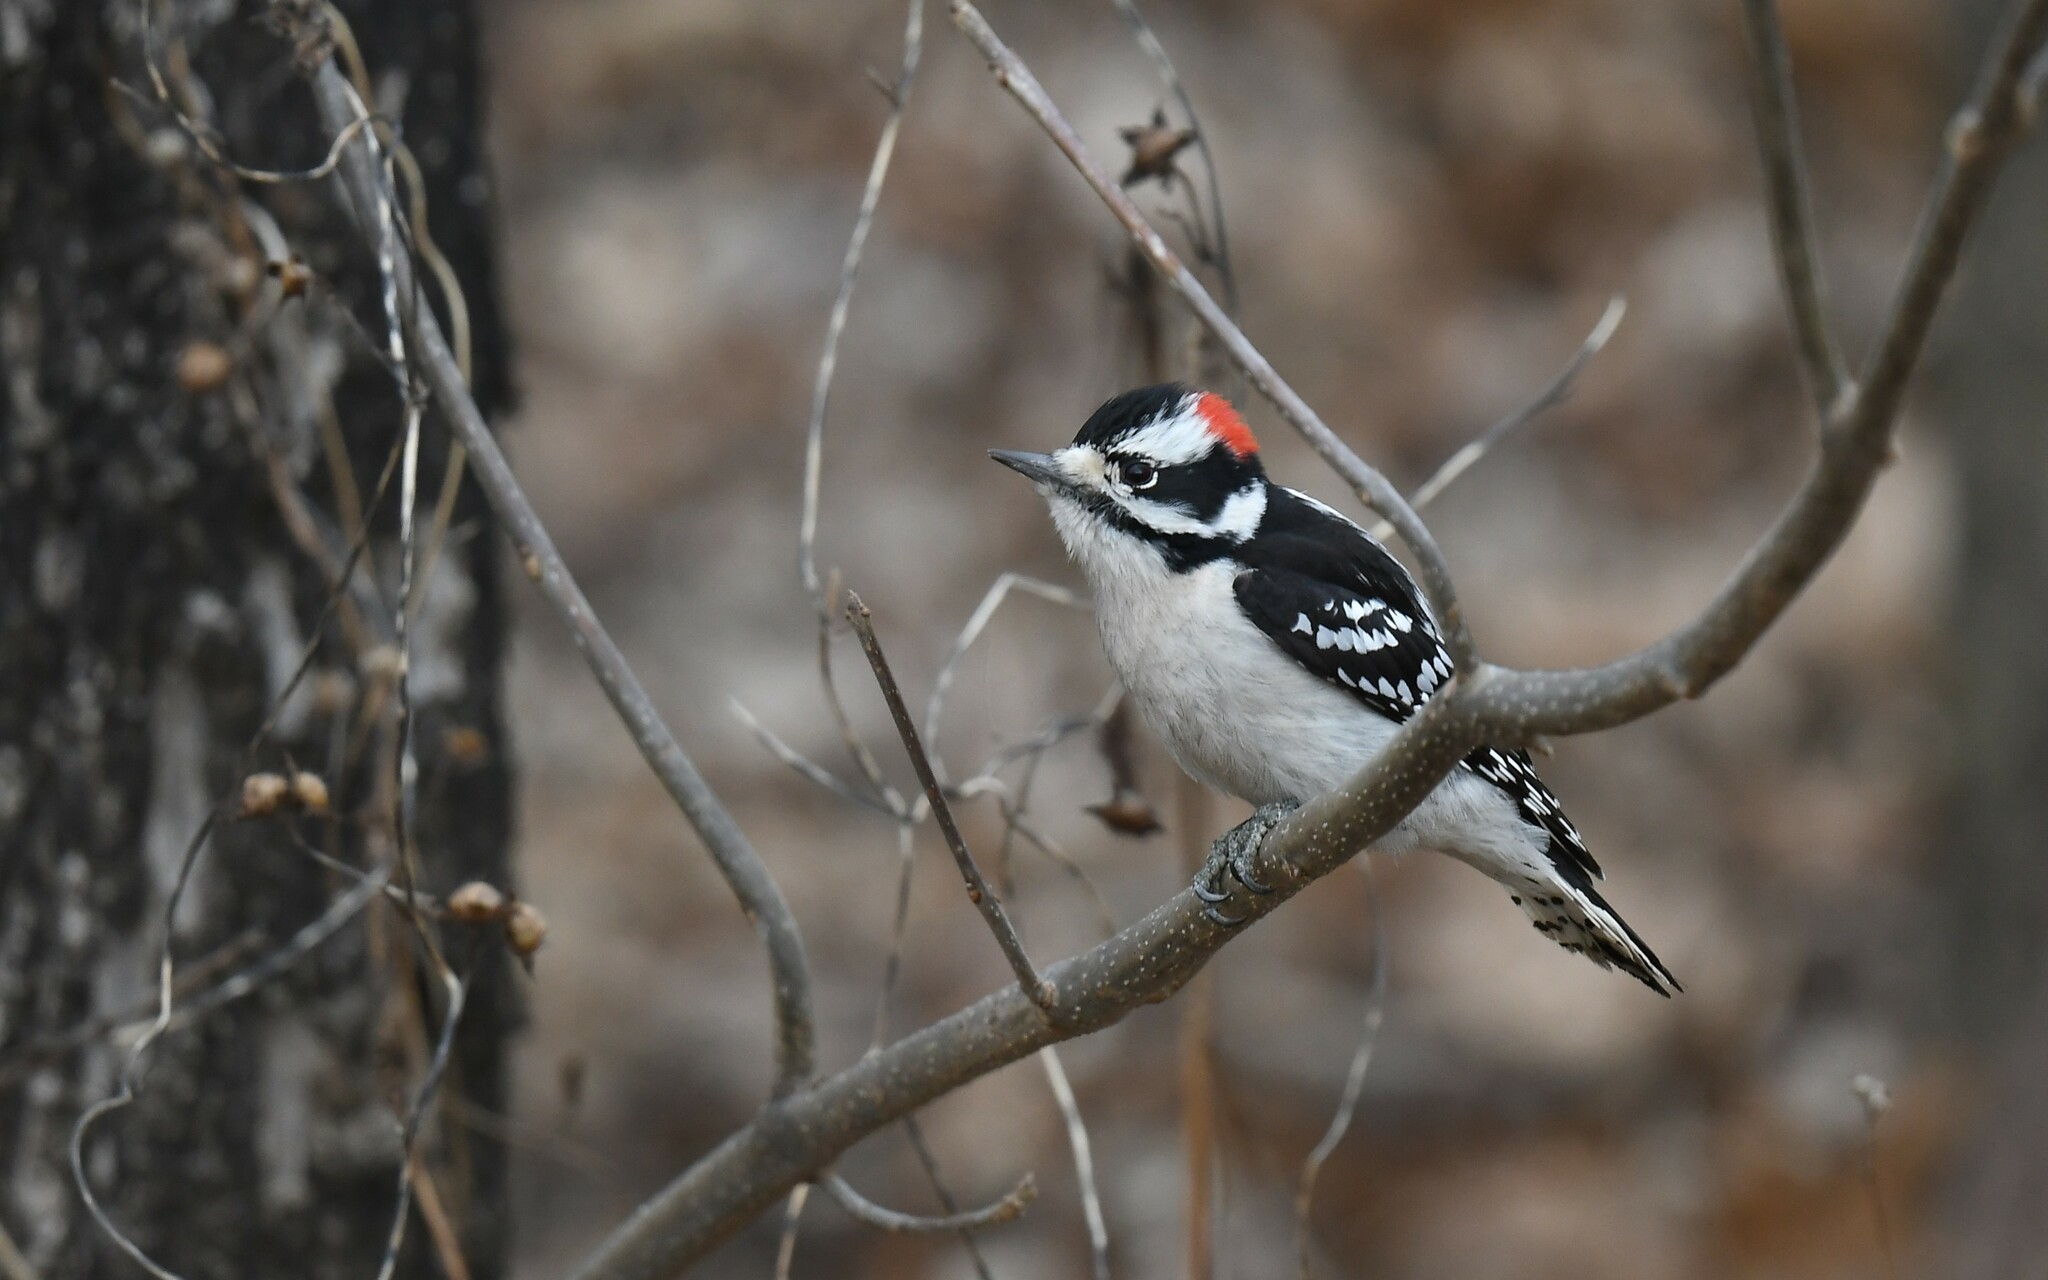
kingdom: Animalia
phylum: Chordata
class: Aves
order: Piciformes
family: Picidae
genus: Dryobates
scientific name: Dryobates pubescens
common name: Downy woodpecker
